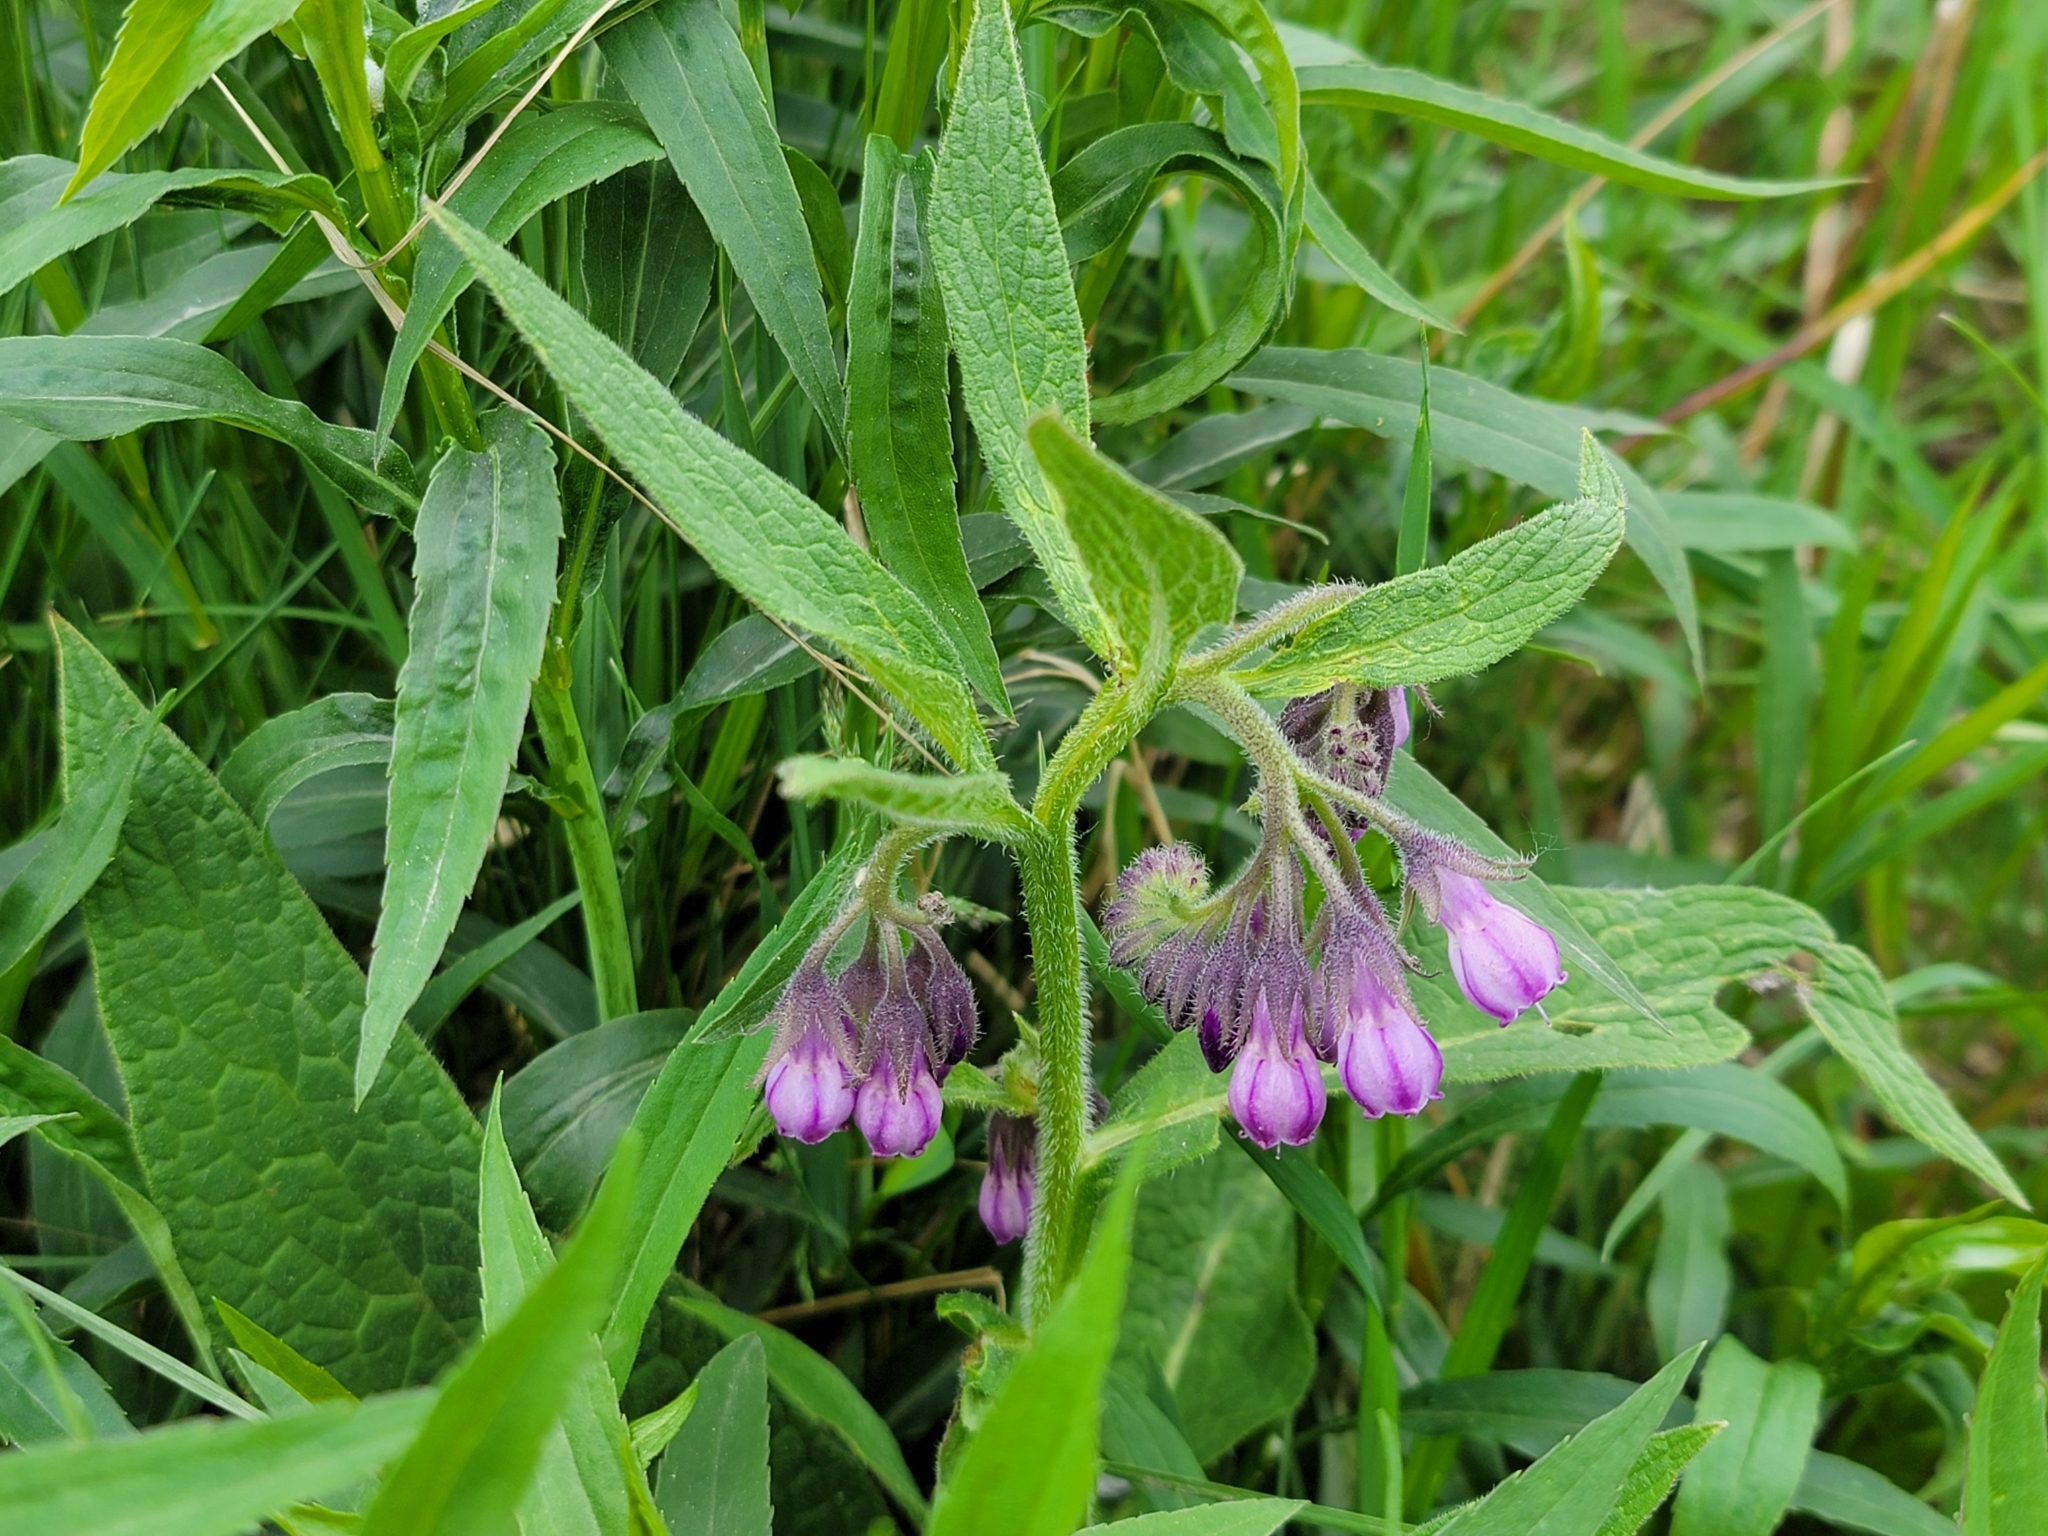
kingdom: Plantae
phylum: Tracheophyta
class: Magnoliopsida
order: Boraginales
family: Boraginaceae
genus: Symphytum
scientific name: Symphytum officinale
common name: Common comfrey
